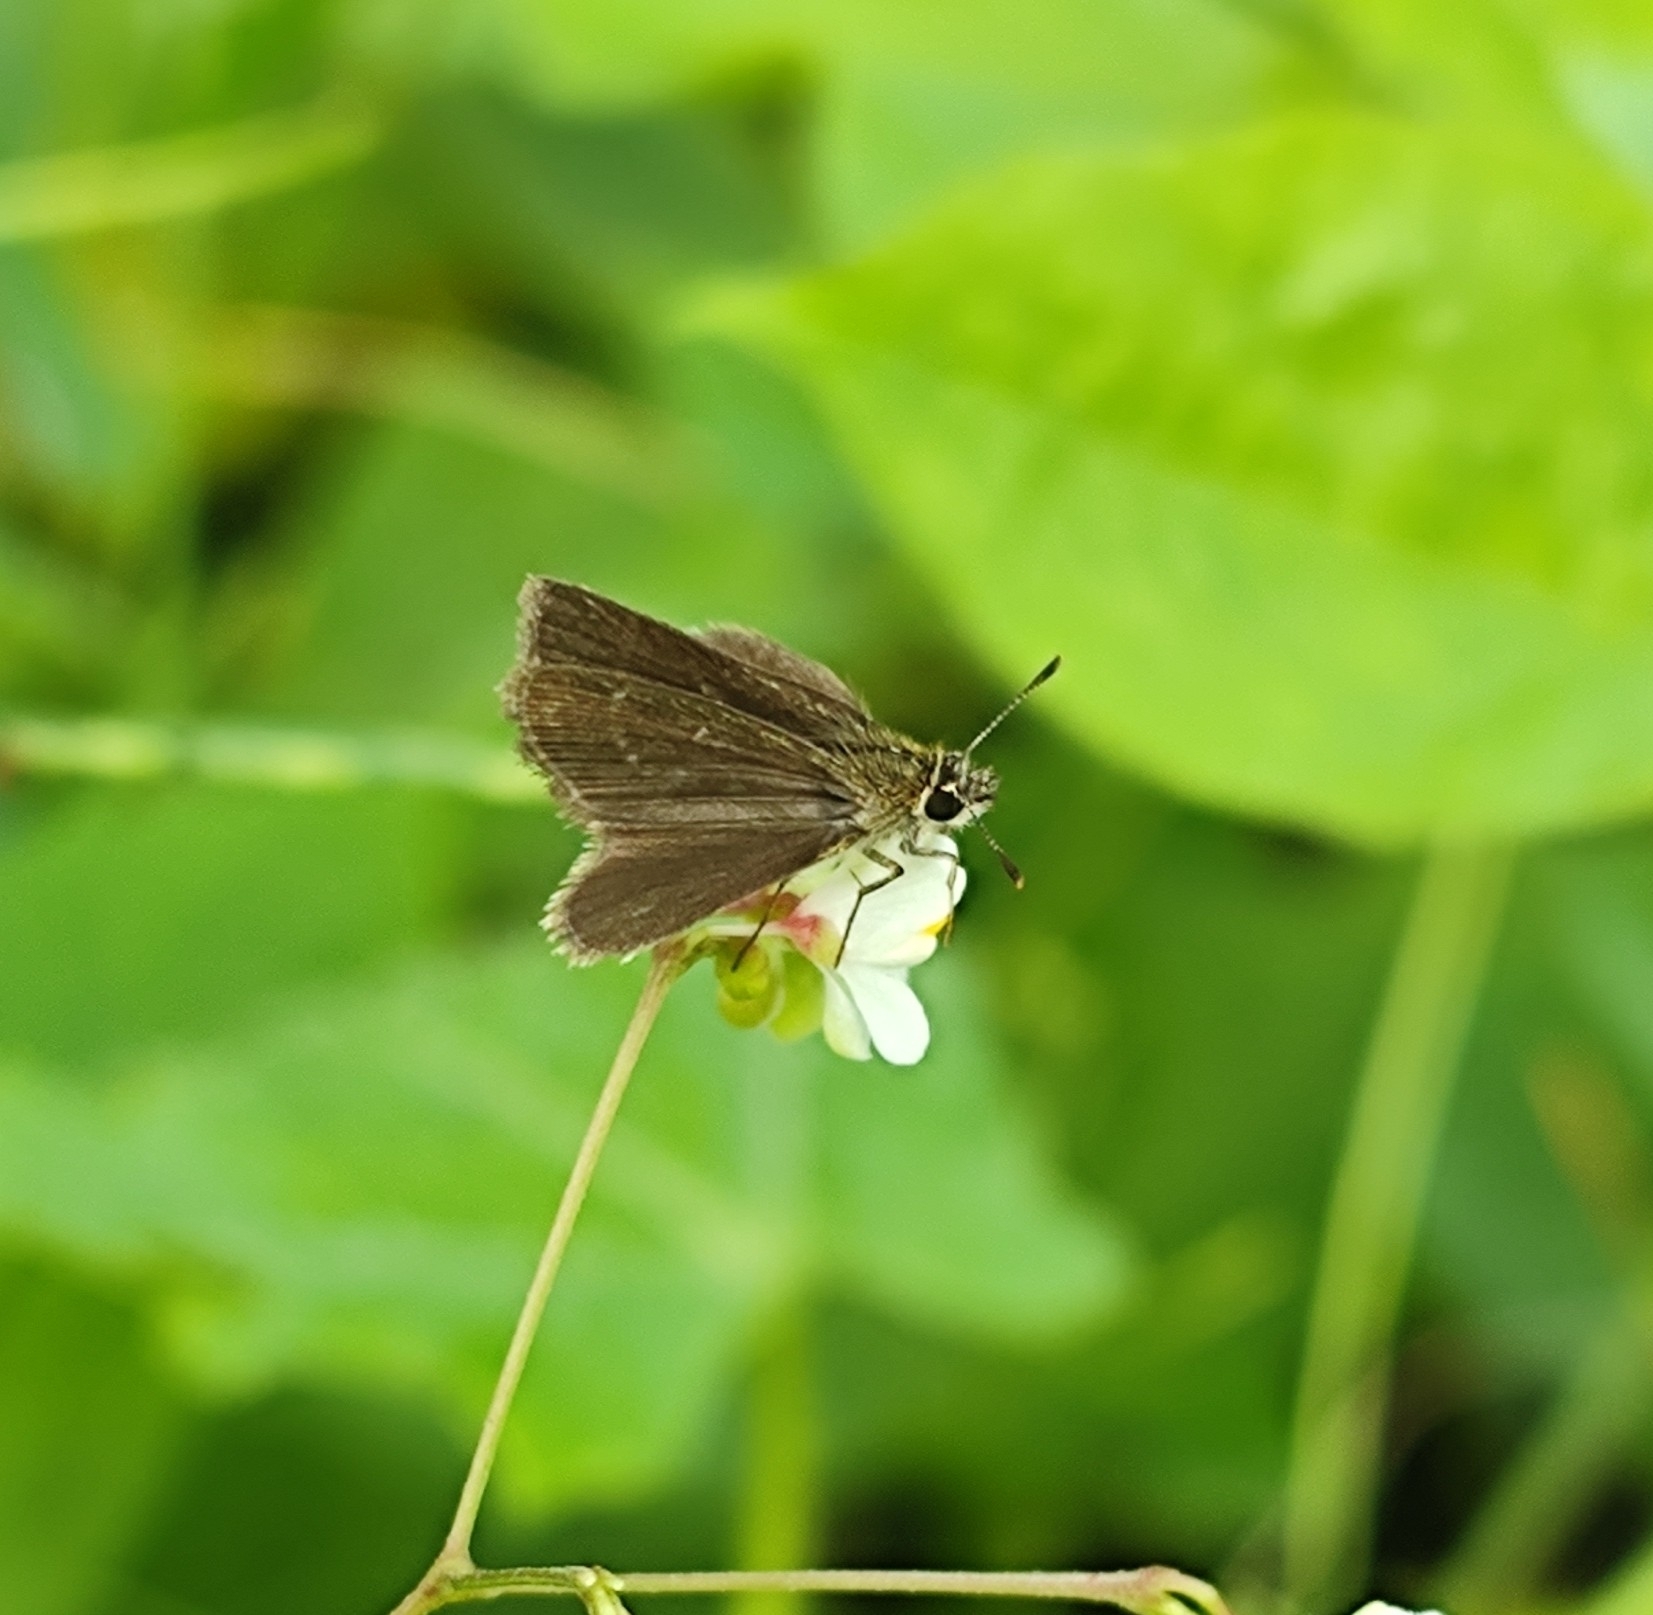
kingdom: Animalia
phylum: Arthropoda
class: Insecta
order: Lepidoptera
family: Hesperiidae
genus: Aeromachus
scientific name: Aeromachus pygmaeus
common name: Pygmy scrub hopper
